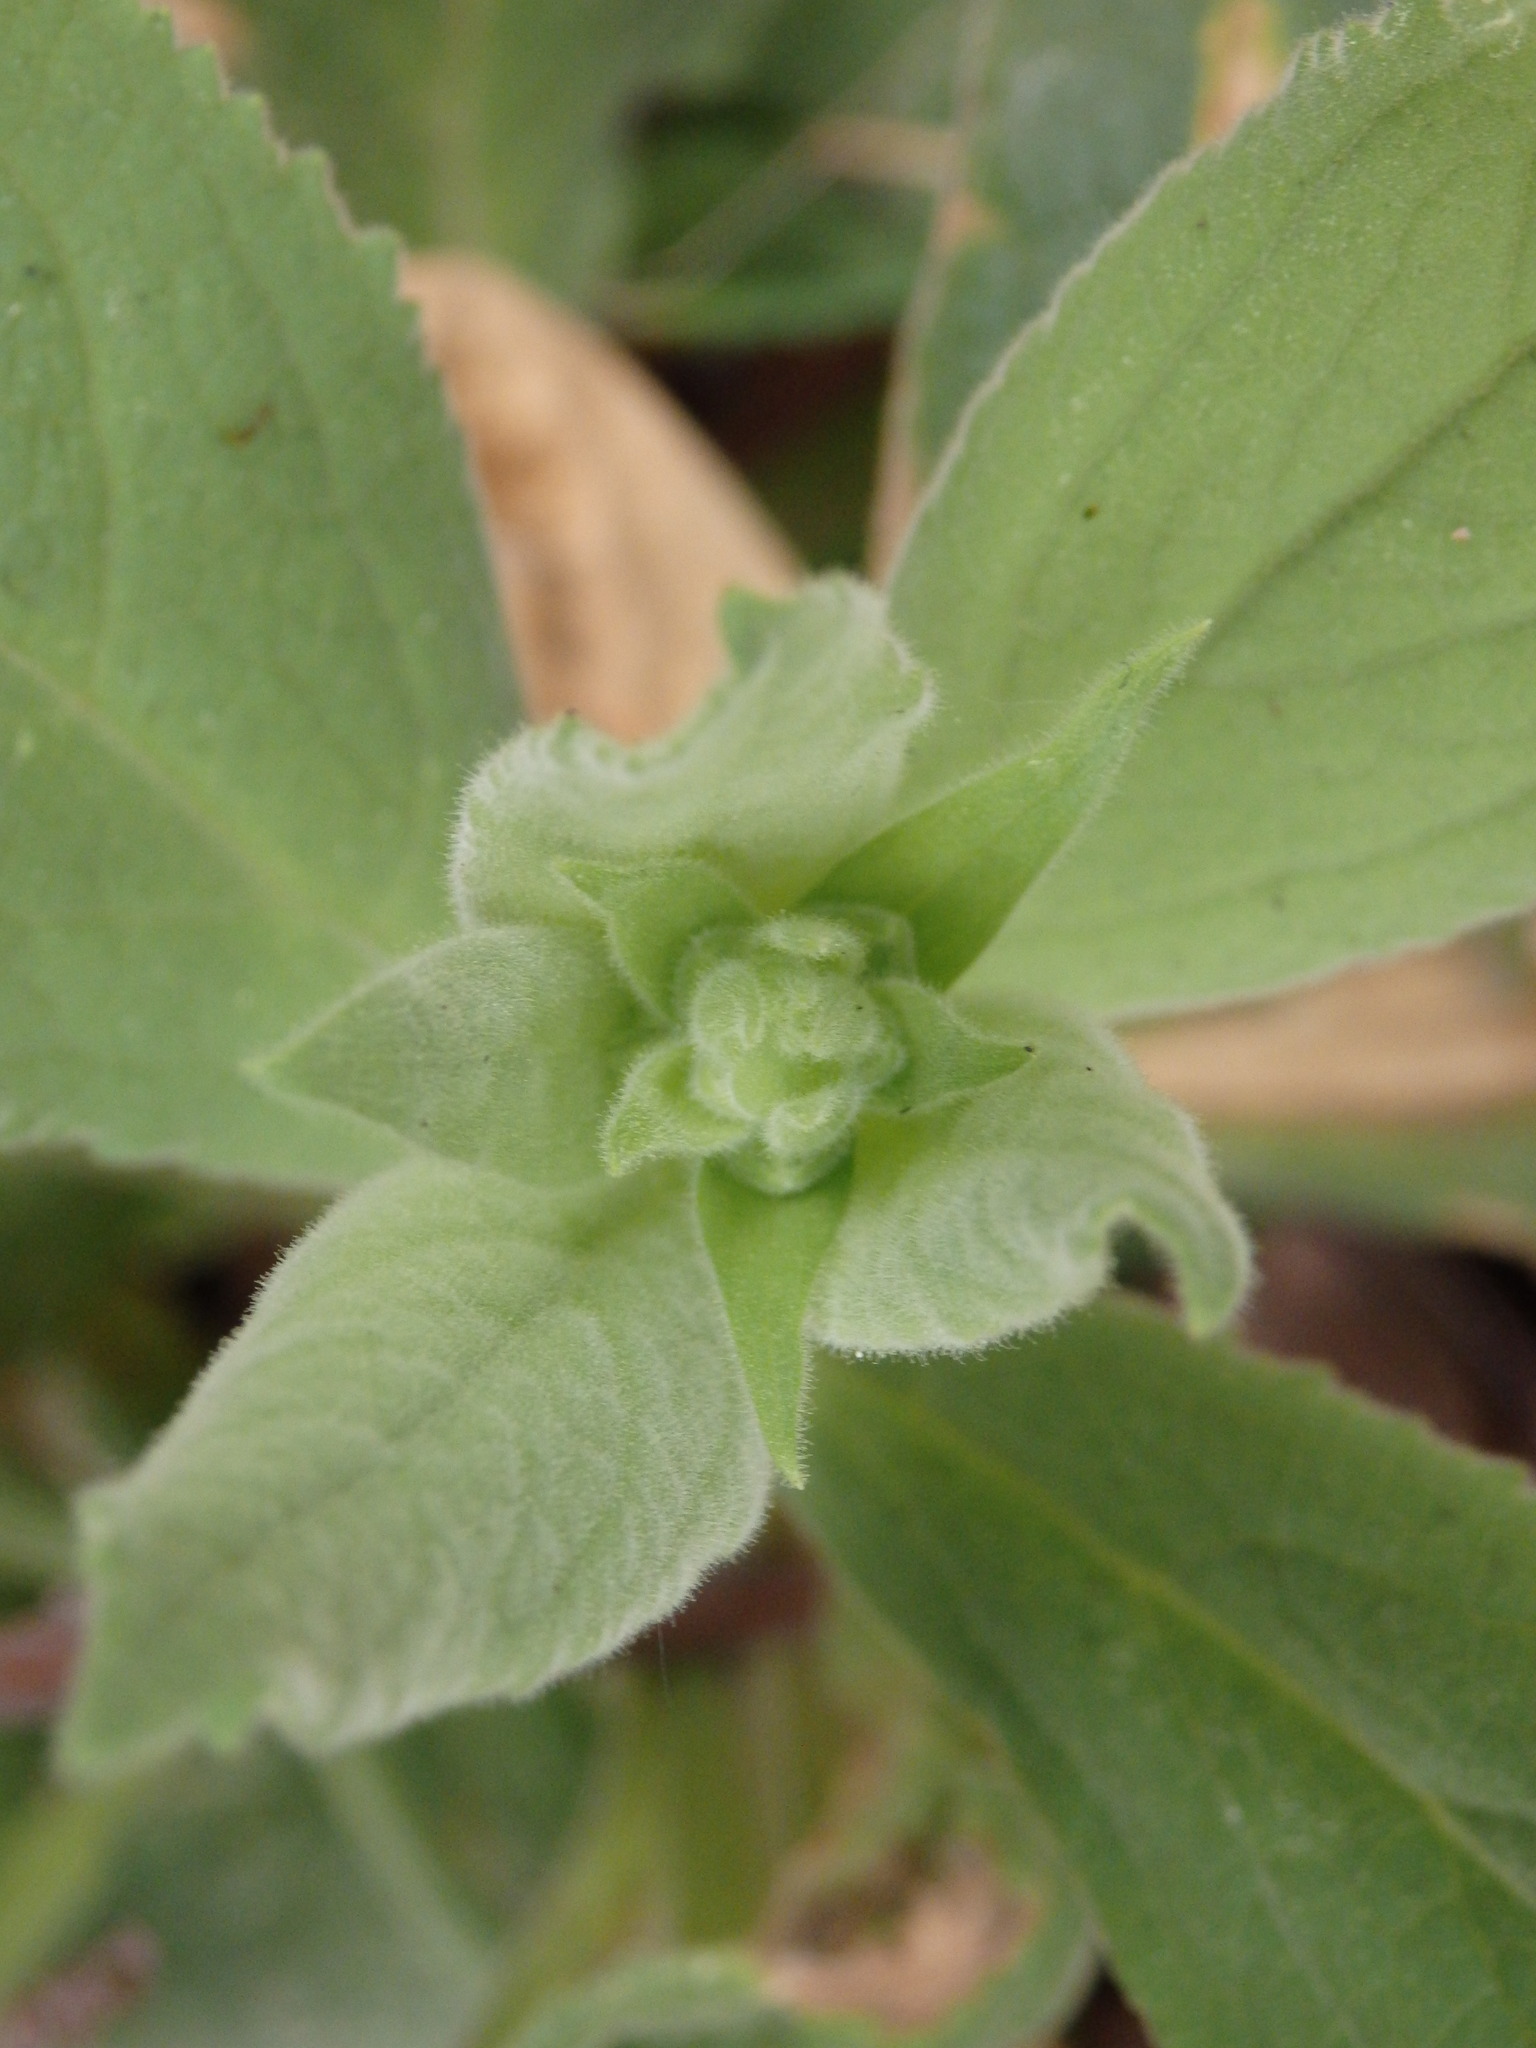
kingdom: Plantae
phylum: Tracheophyta
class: Magnoliopsida
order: Lamiales
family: Plantaginaceae
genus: Digitalis
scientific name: Digitalis thapsi
